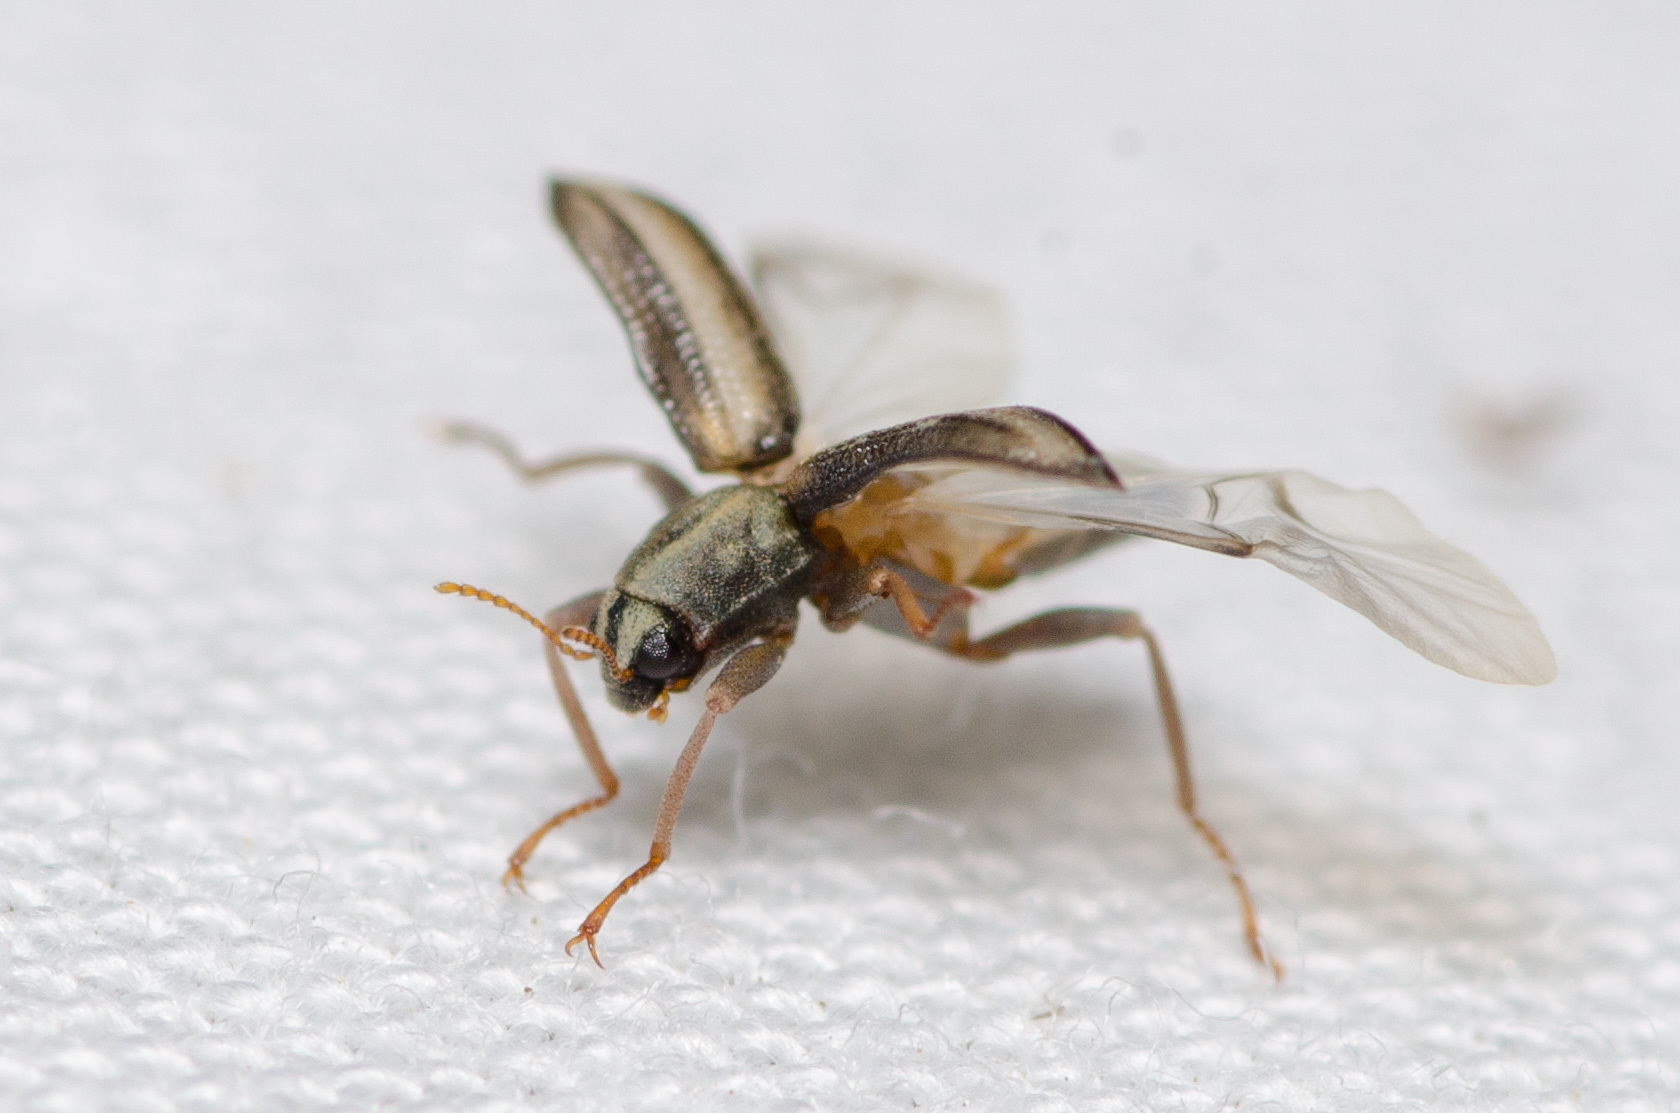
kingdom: Animalia
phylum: Arthropoda
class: Insecta
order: Coleoptera
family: Elmidae
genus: Stenelmis
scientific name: Stenelmis
